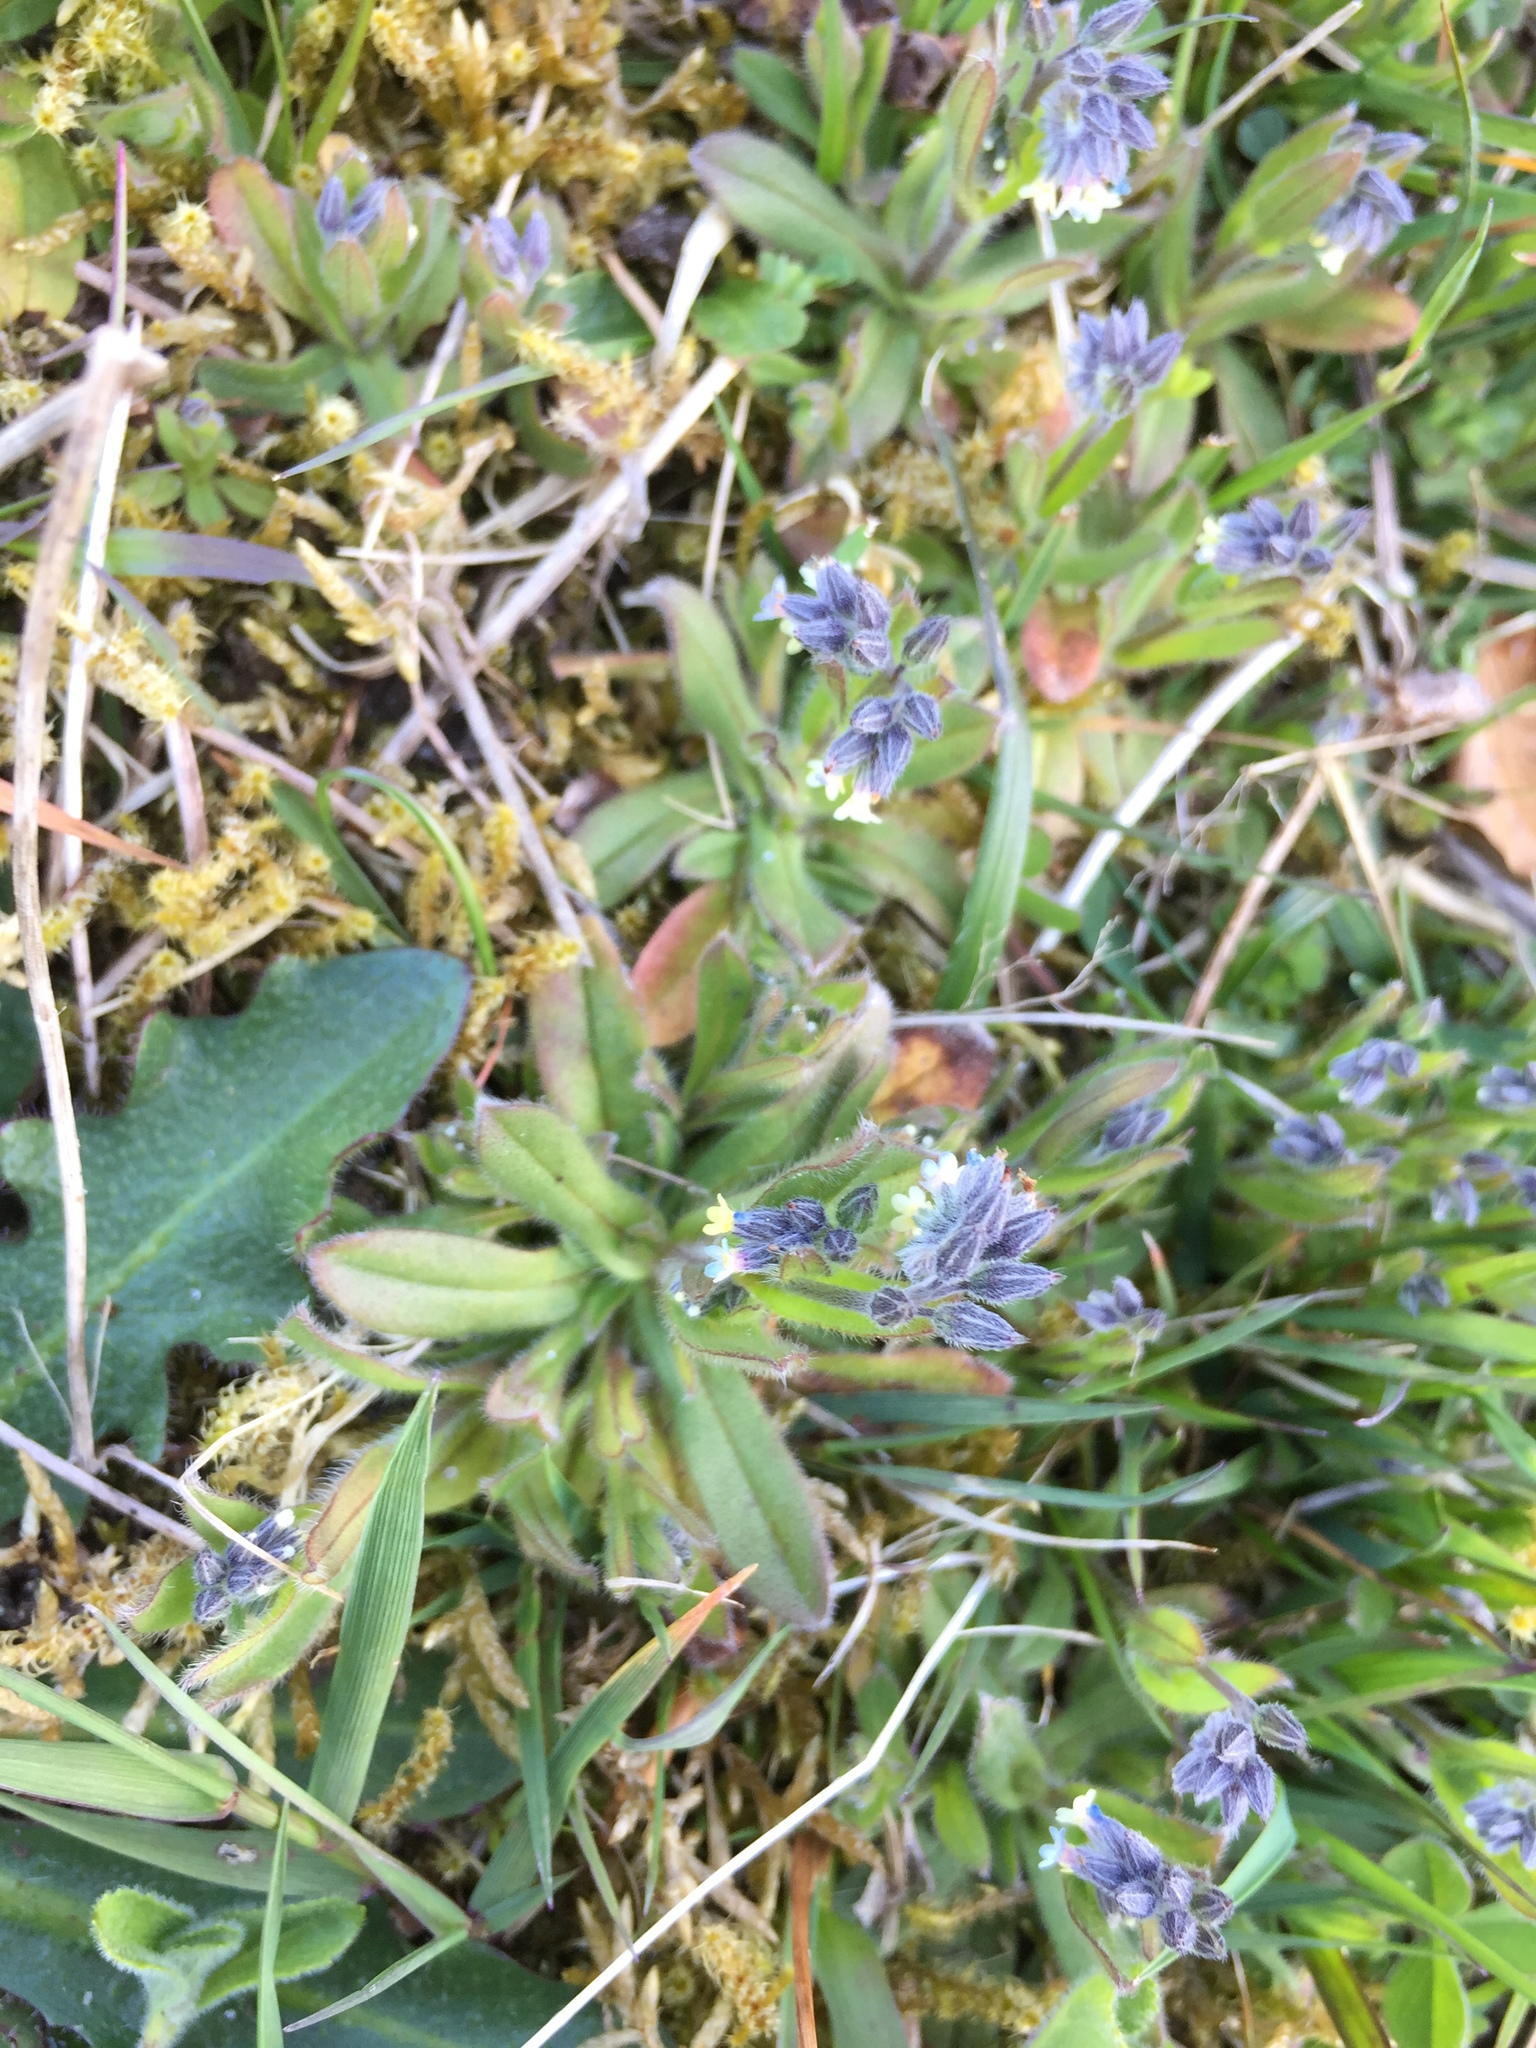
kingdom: Plantae
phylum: Tracheophyta
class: Magnoliopsida
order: Boraginales
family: Boraginaceae
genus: Myosotis
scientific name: Myosotis discolor
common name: Changing forget-me-not
